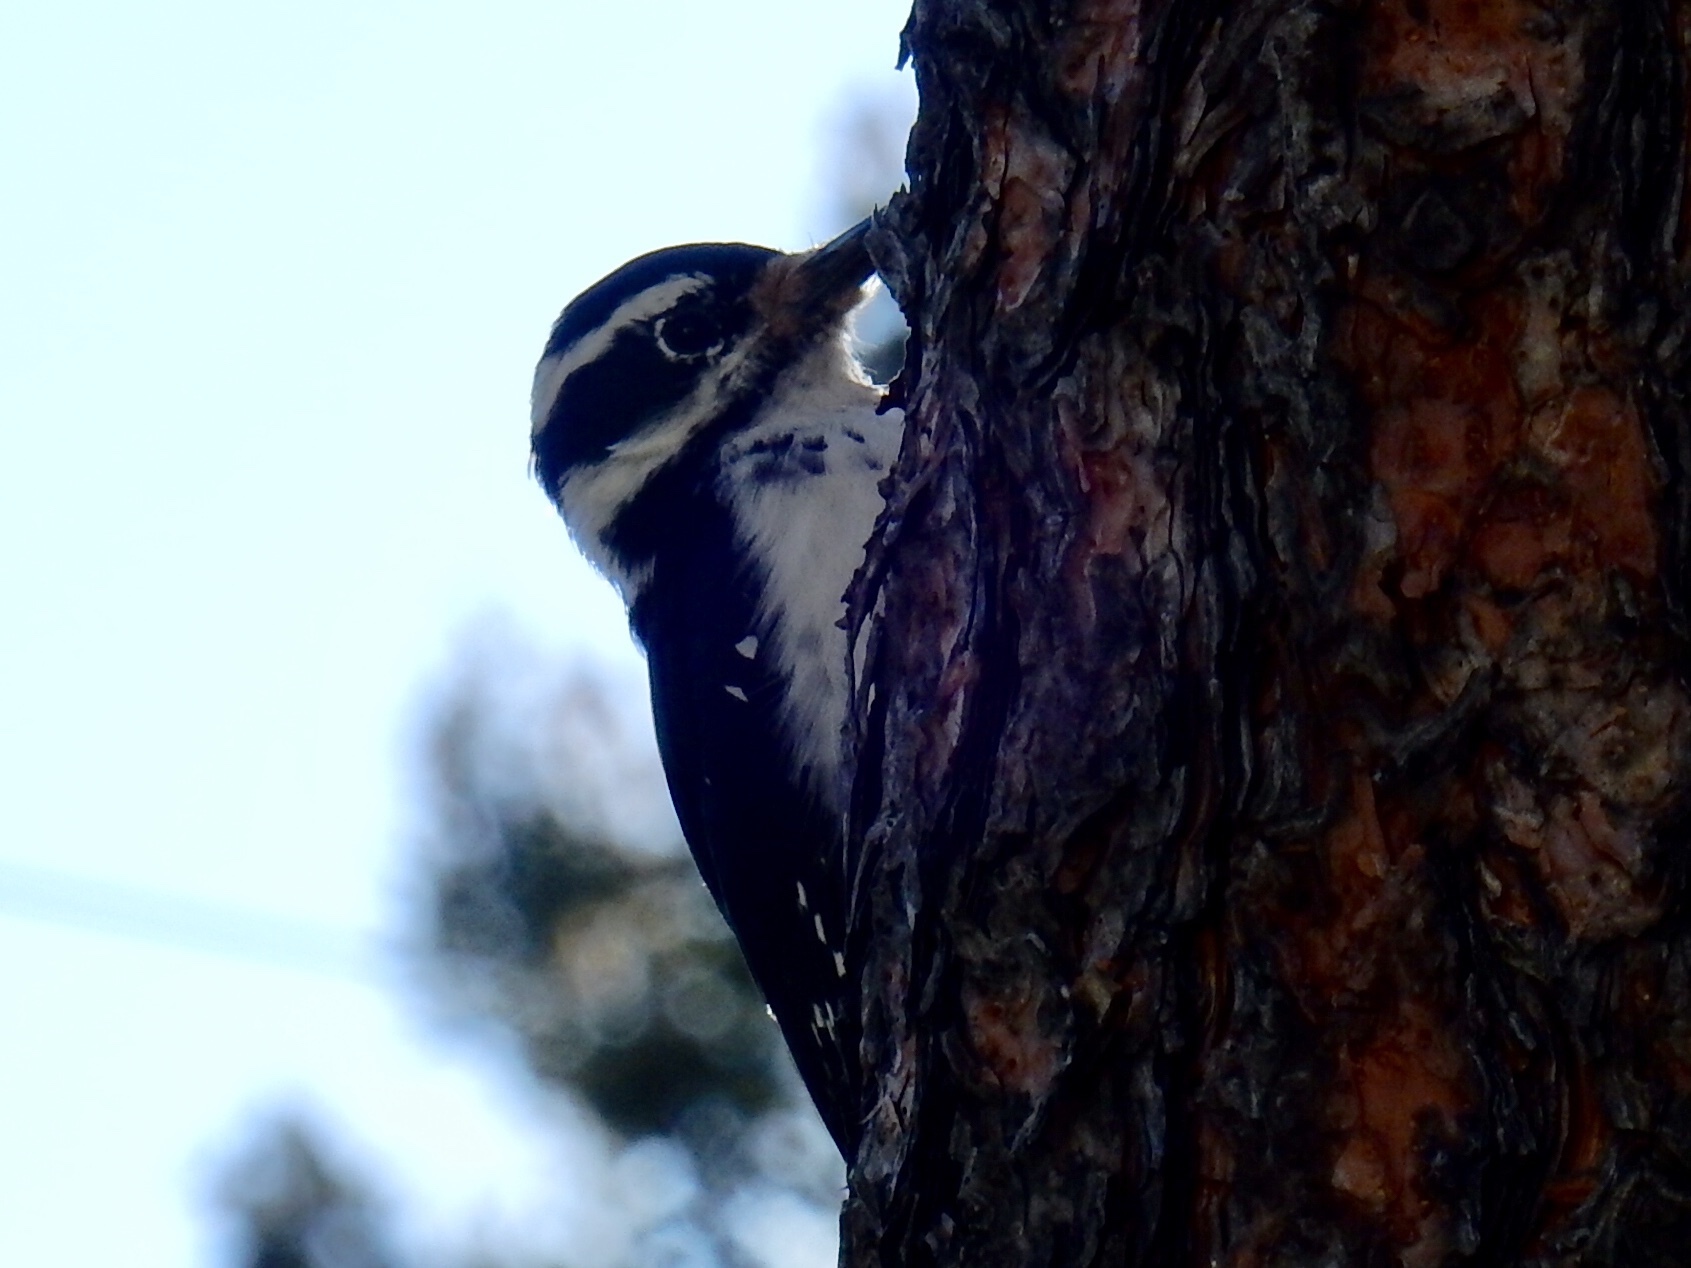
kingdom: Animalia
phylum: Chordata
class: Aves
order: Piciformes
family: Picidae
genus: Leuconotopicus
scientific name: Leuconotopicus villosus
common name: Hairy woodpecker
